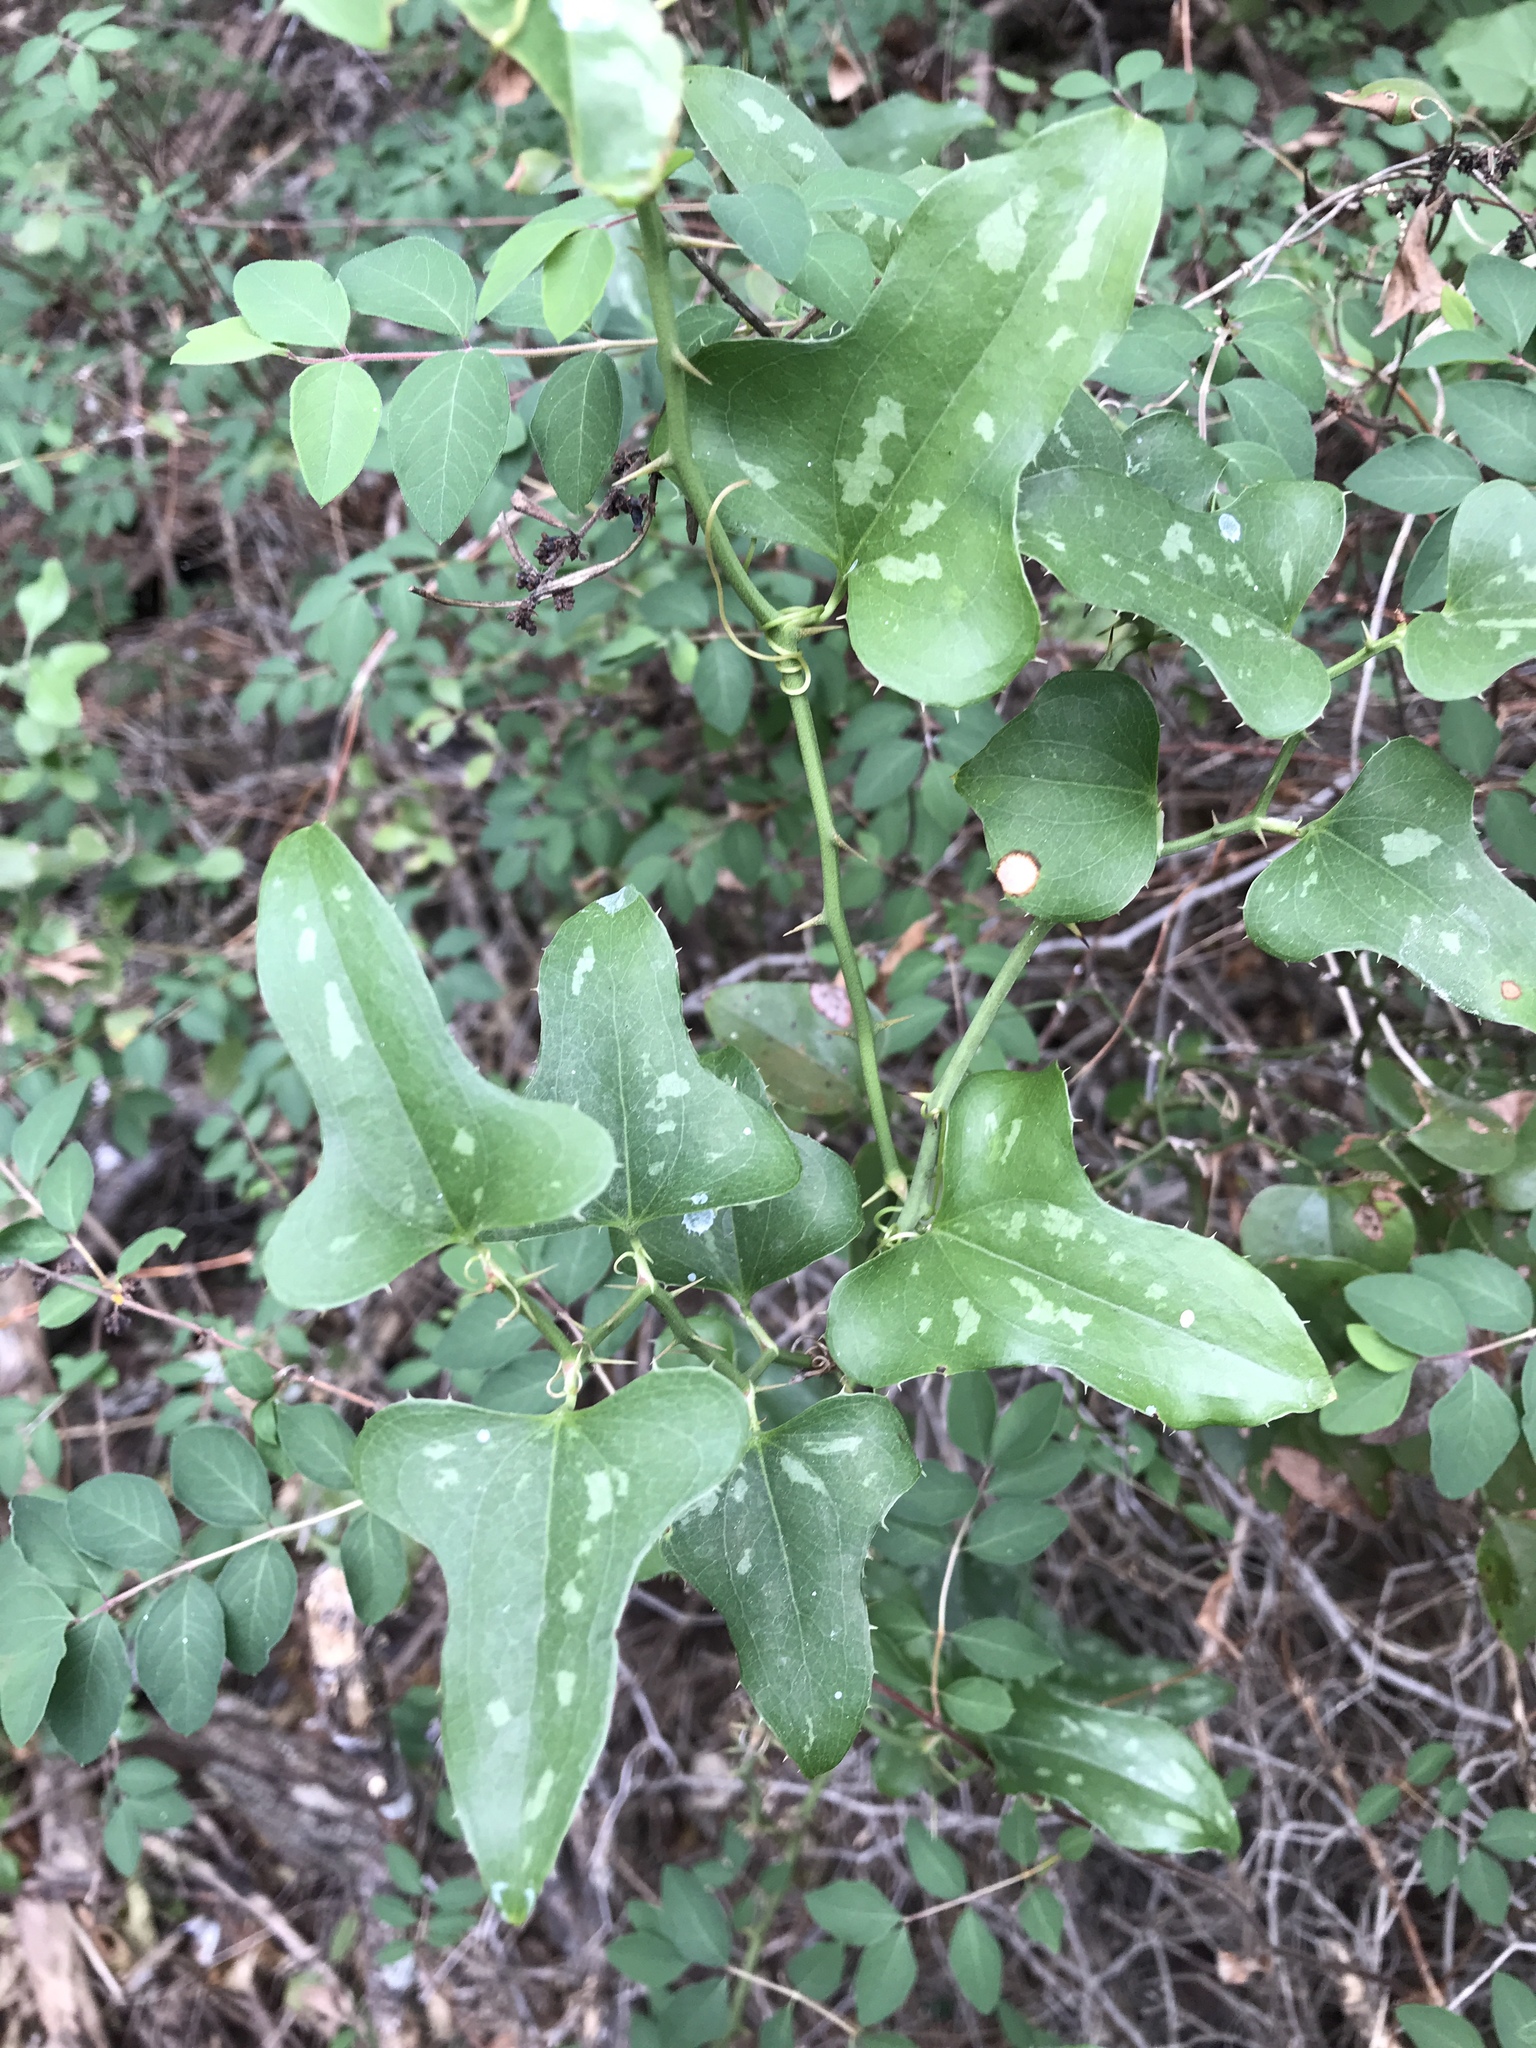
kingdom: Plantae
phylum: Tracheophyta
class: Liliopsida
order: Liliales
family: Smilacaceae
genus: Smilax
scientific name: Smilax bona-nox
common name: Catbrier
